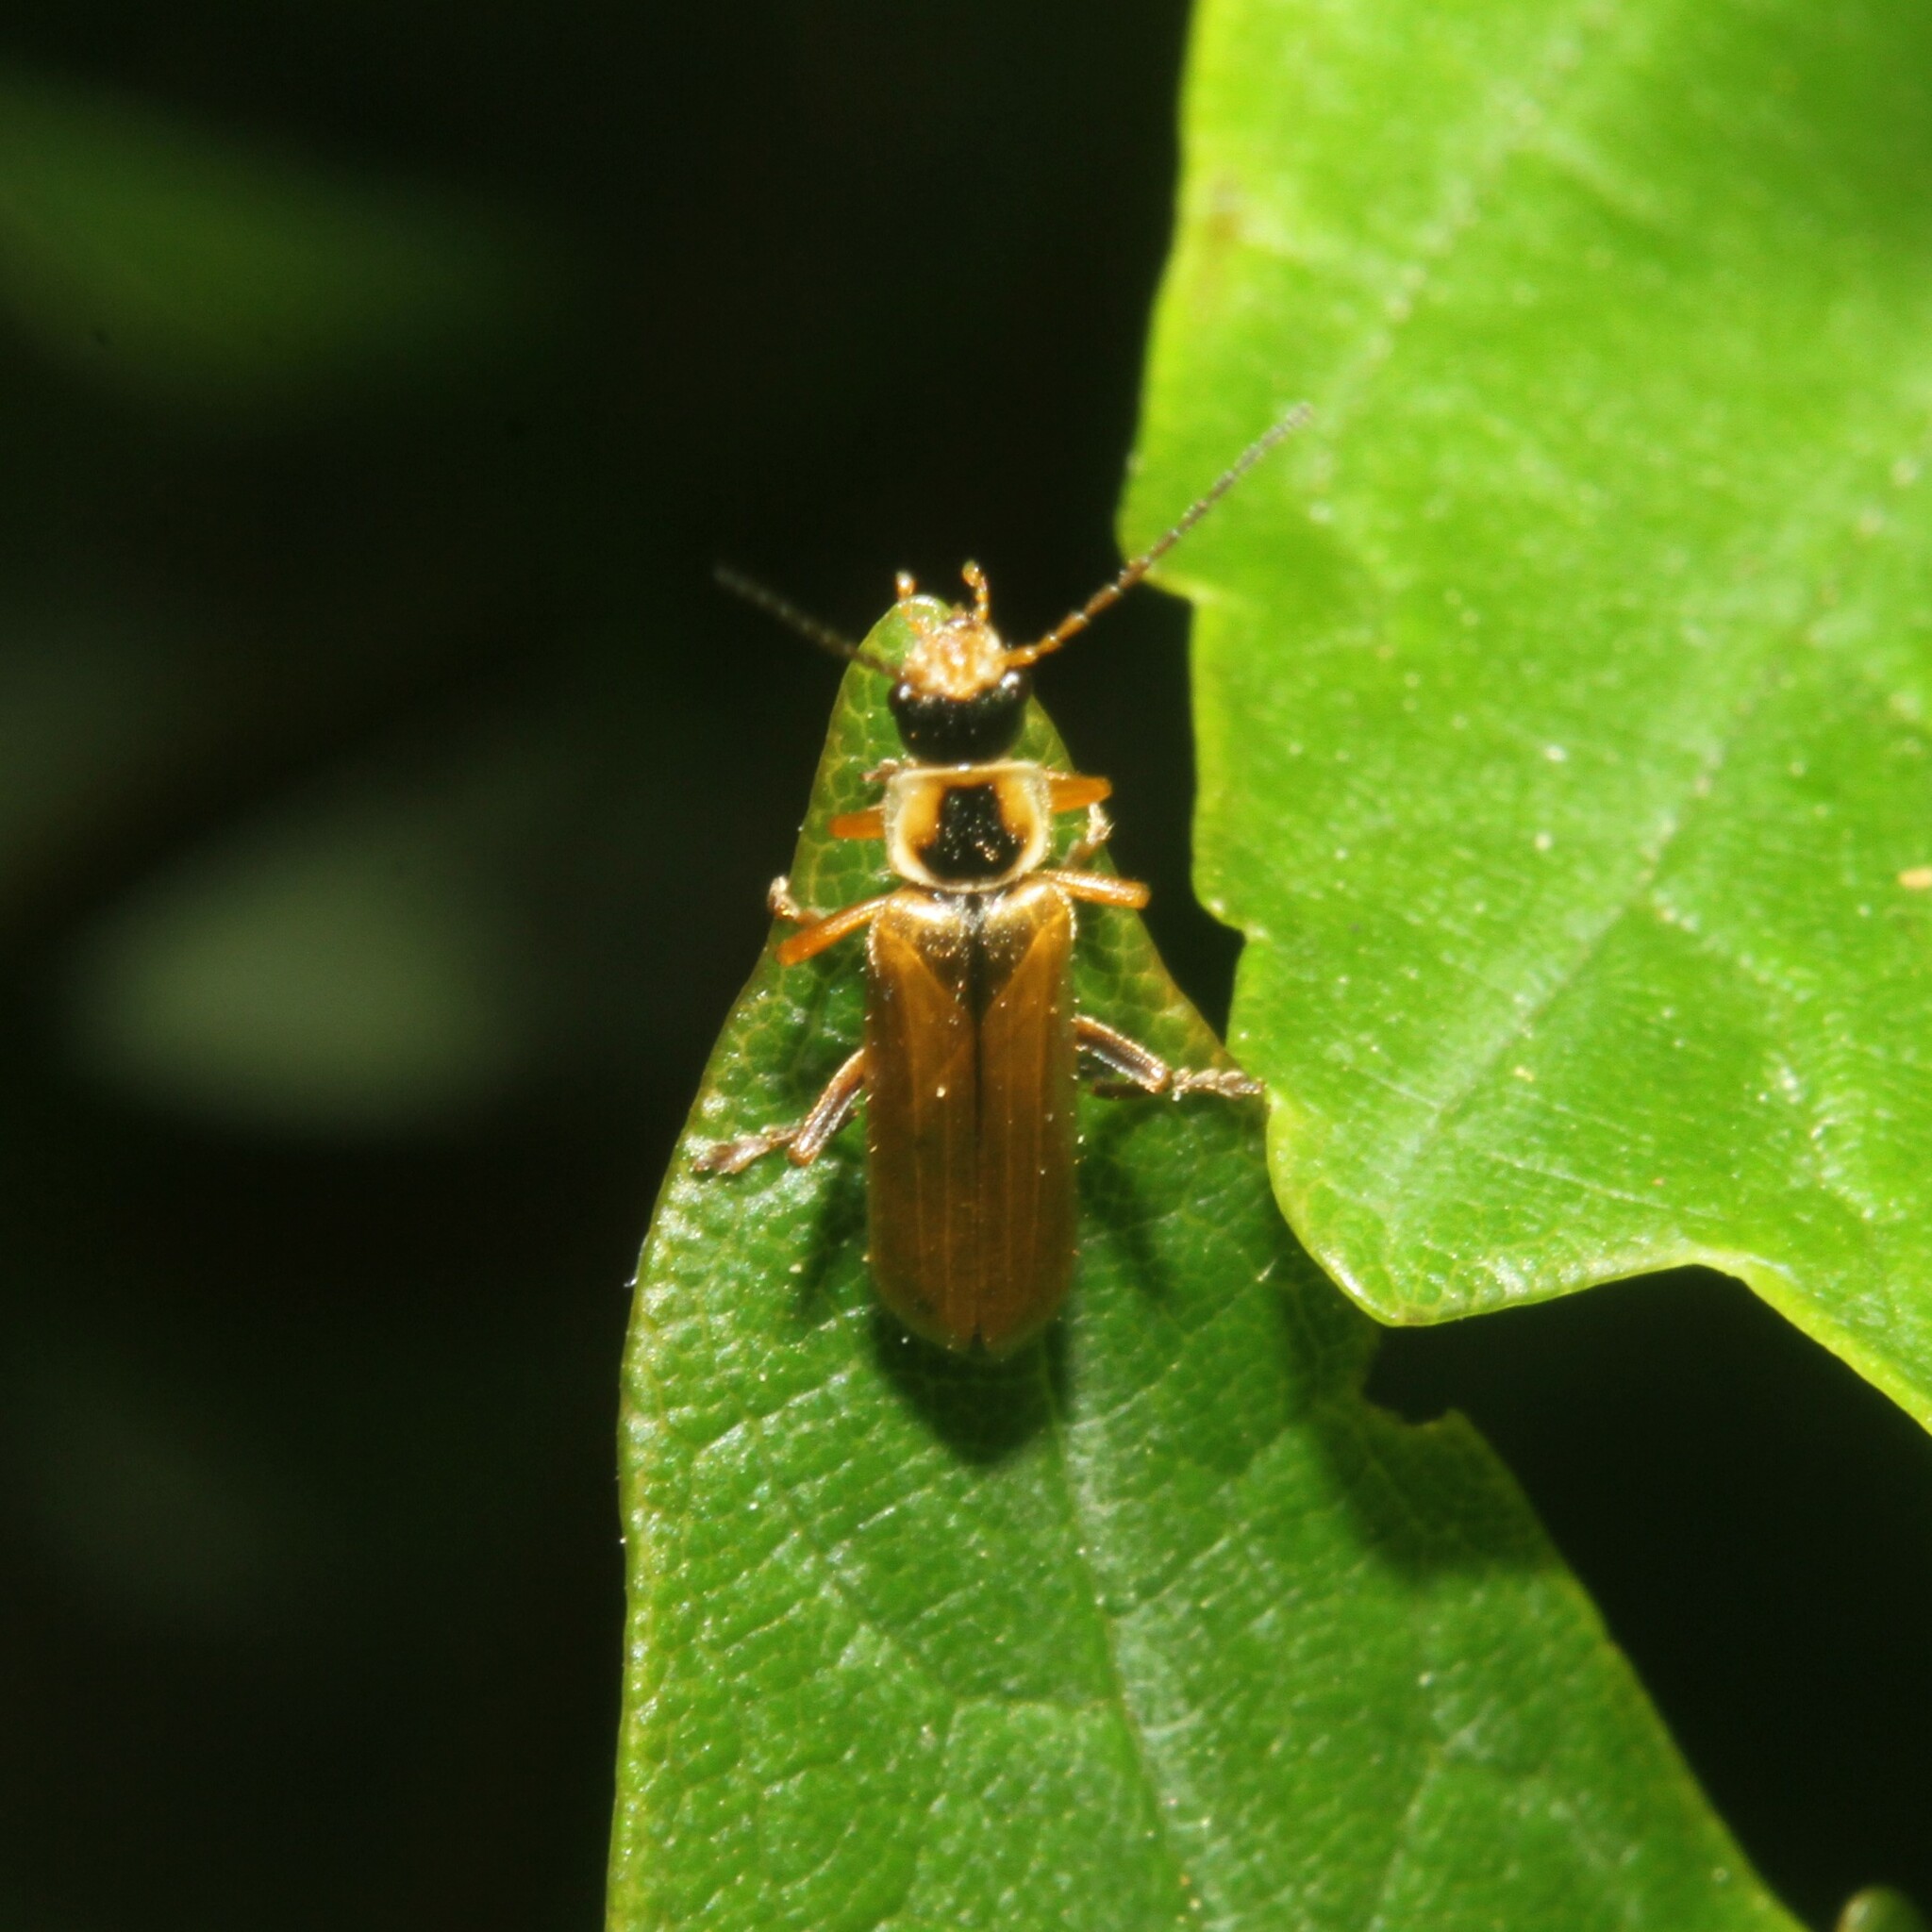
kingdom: Animalia
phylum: Arthropoda
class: Insecta
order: Coleoptera
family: Cantharidae
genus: Cantharis
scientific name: Cantharis decipiens
